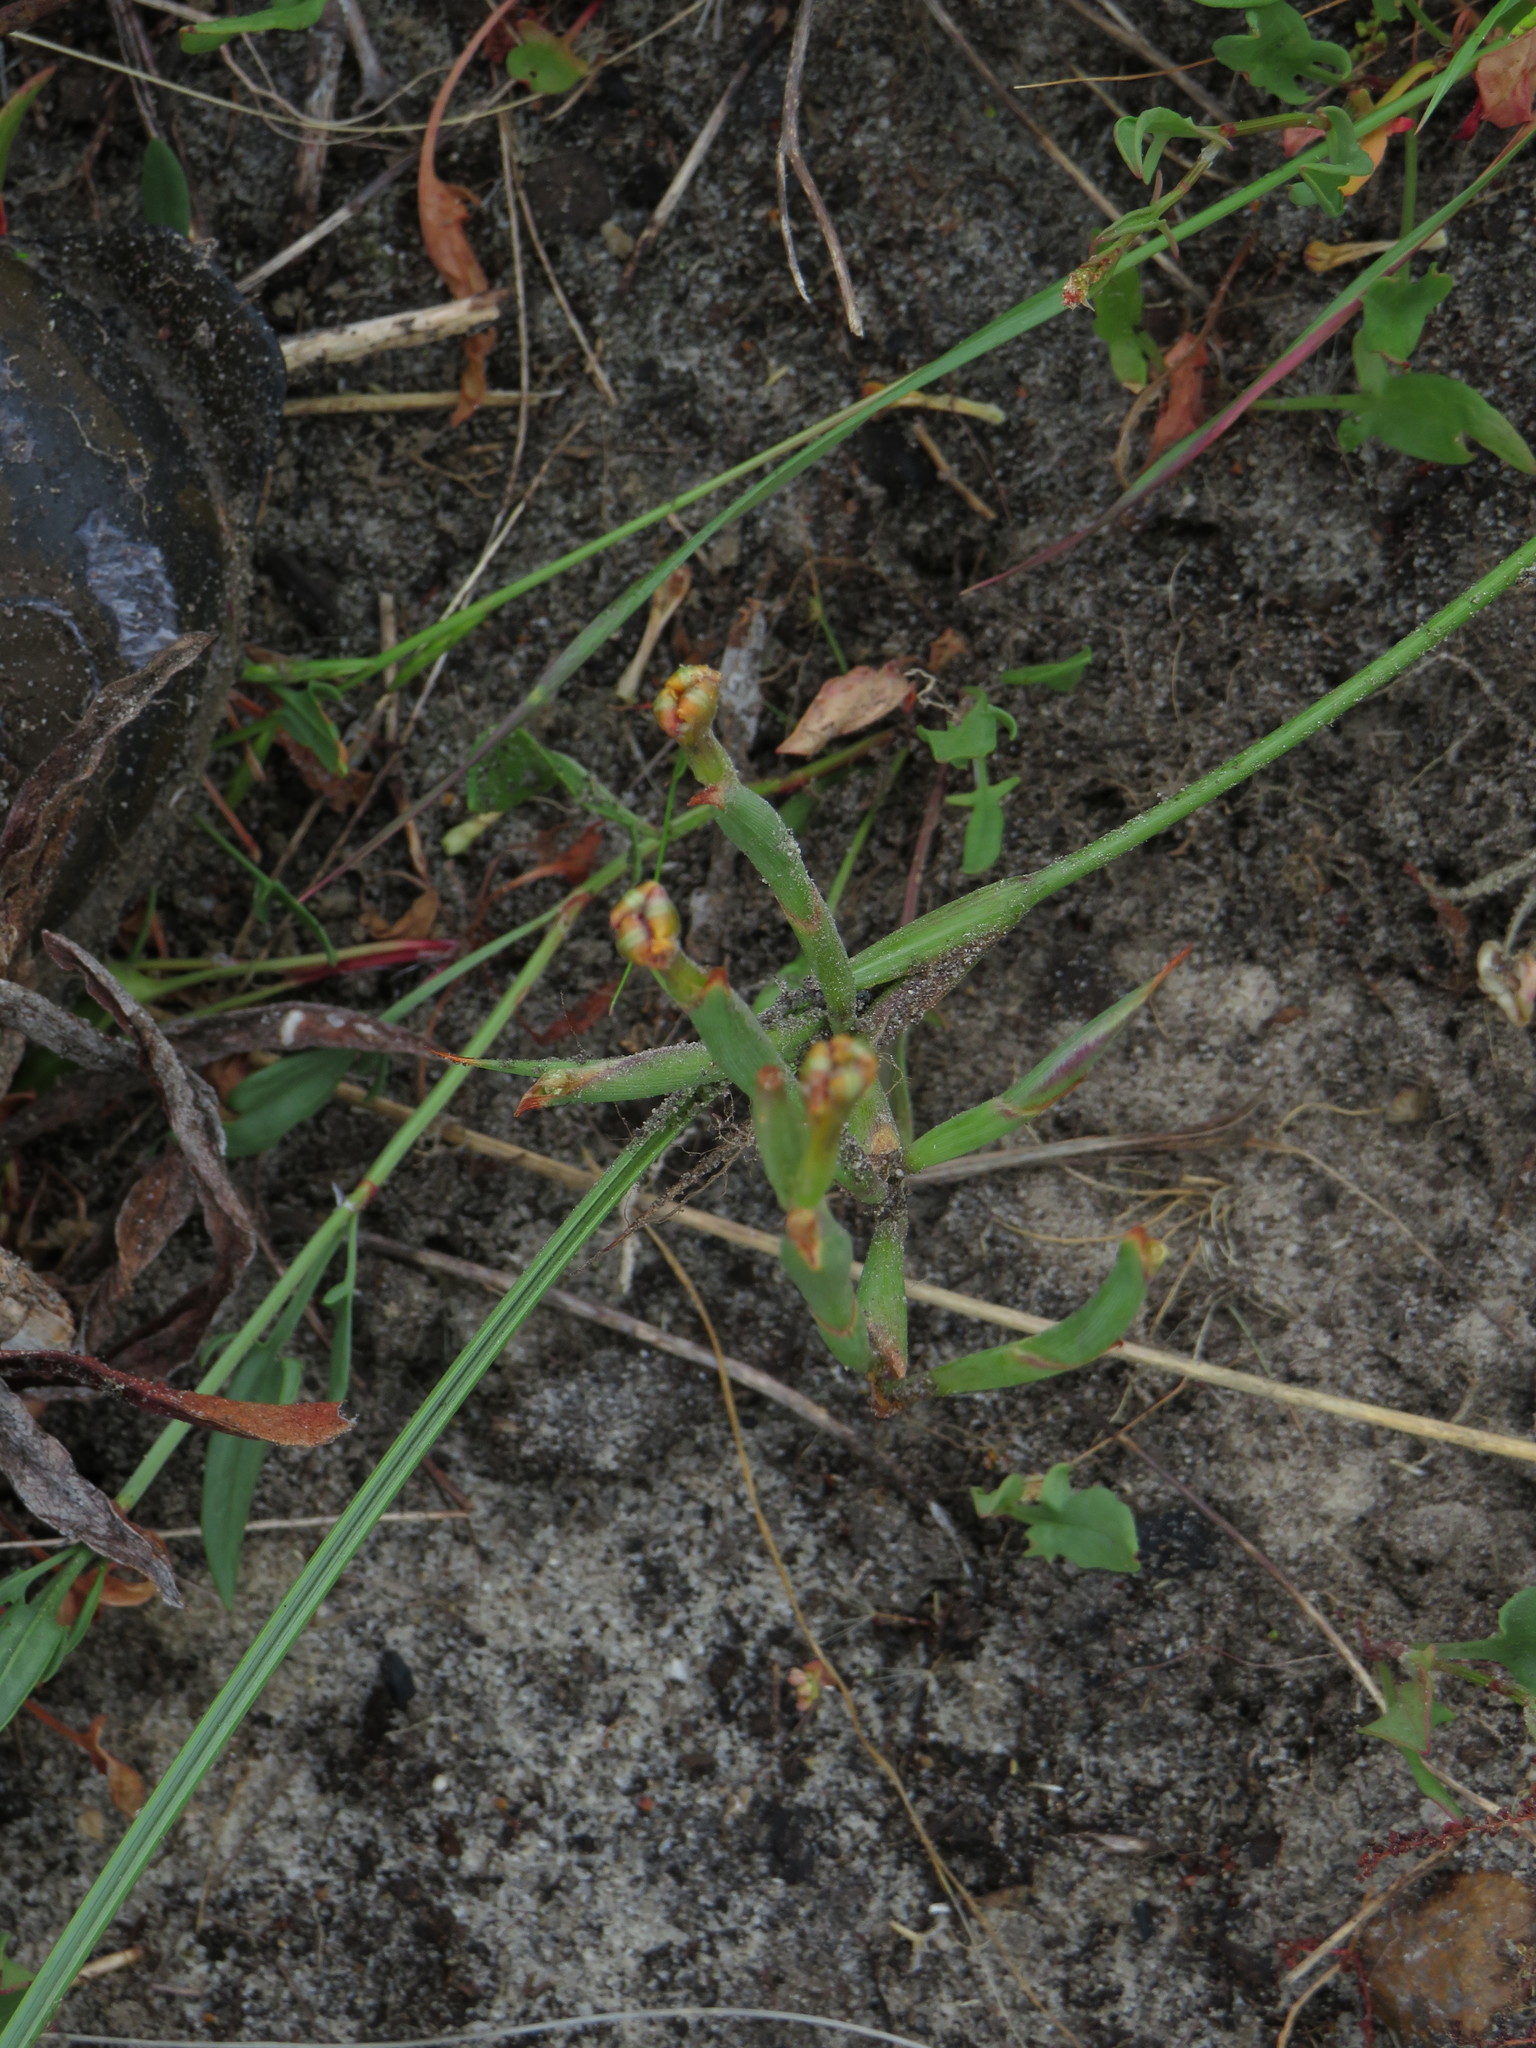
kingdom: Plantae
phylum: Tracheophyta
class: Liliopsida
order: Asparagales
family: Iridaceae
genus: Moraea
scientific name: Moraea fugax
